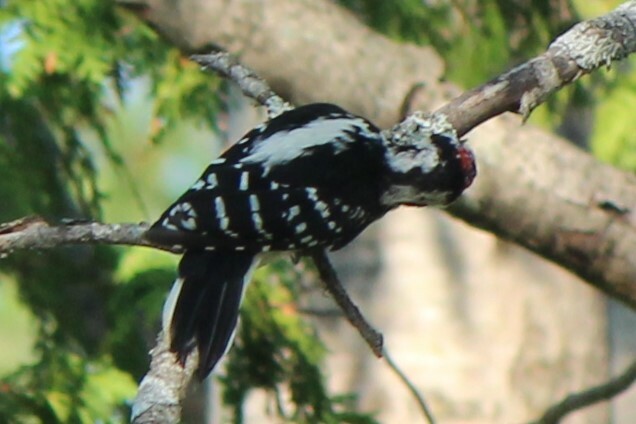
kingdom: Animalia
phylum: Chordata
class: Aves
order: Piciformes
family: Picidae
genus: Leuconotopicus
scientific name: Leuconotopicus villosus
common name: Hairy woodpecker
